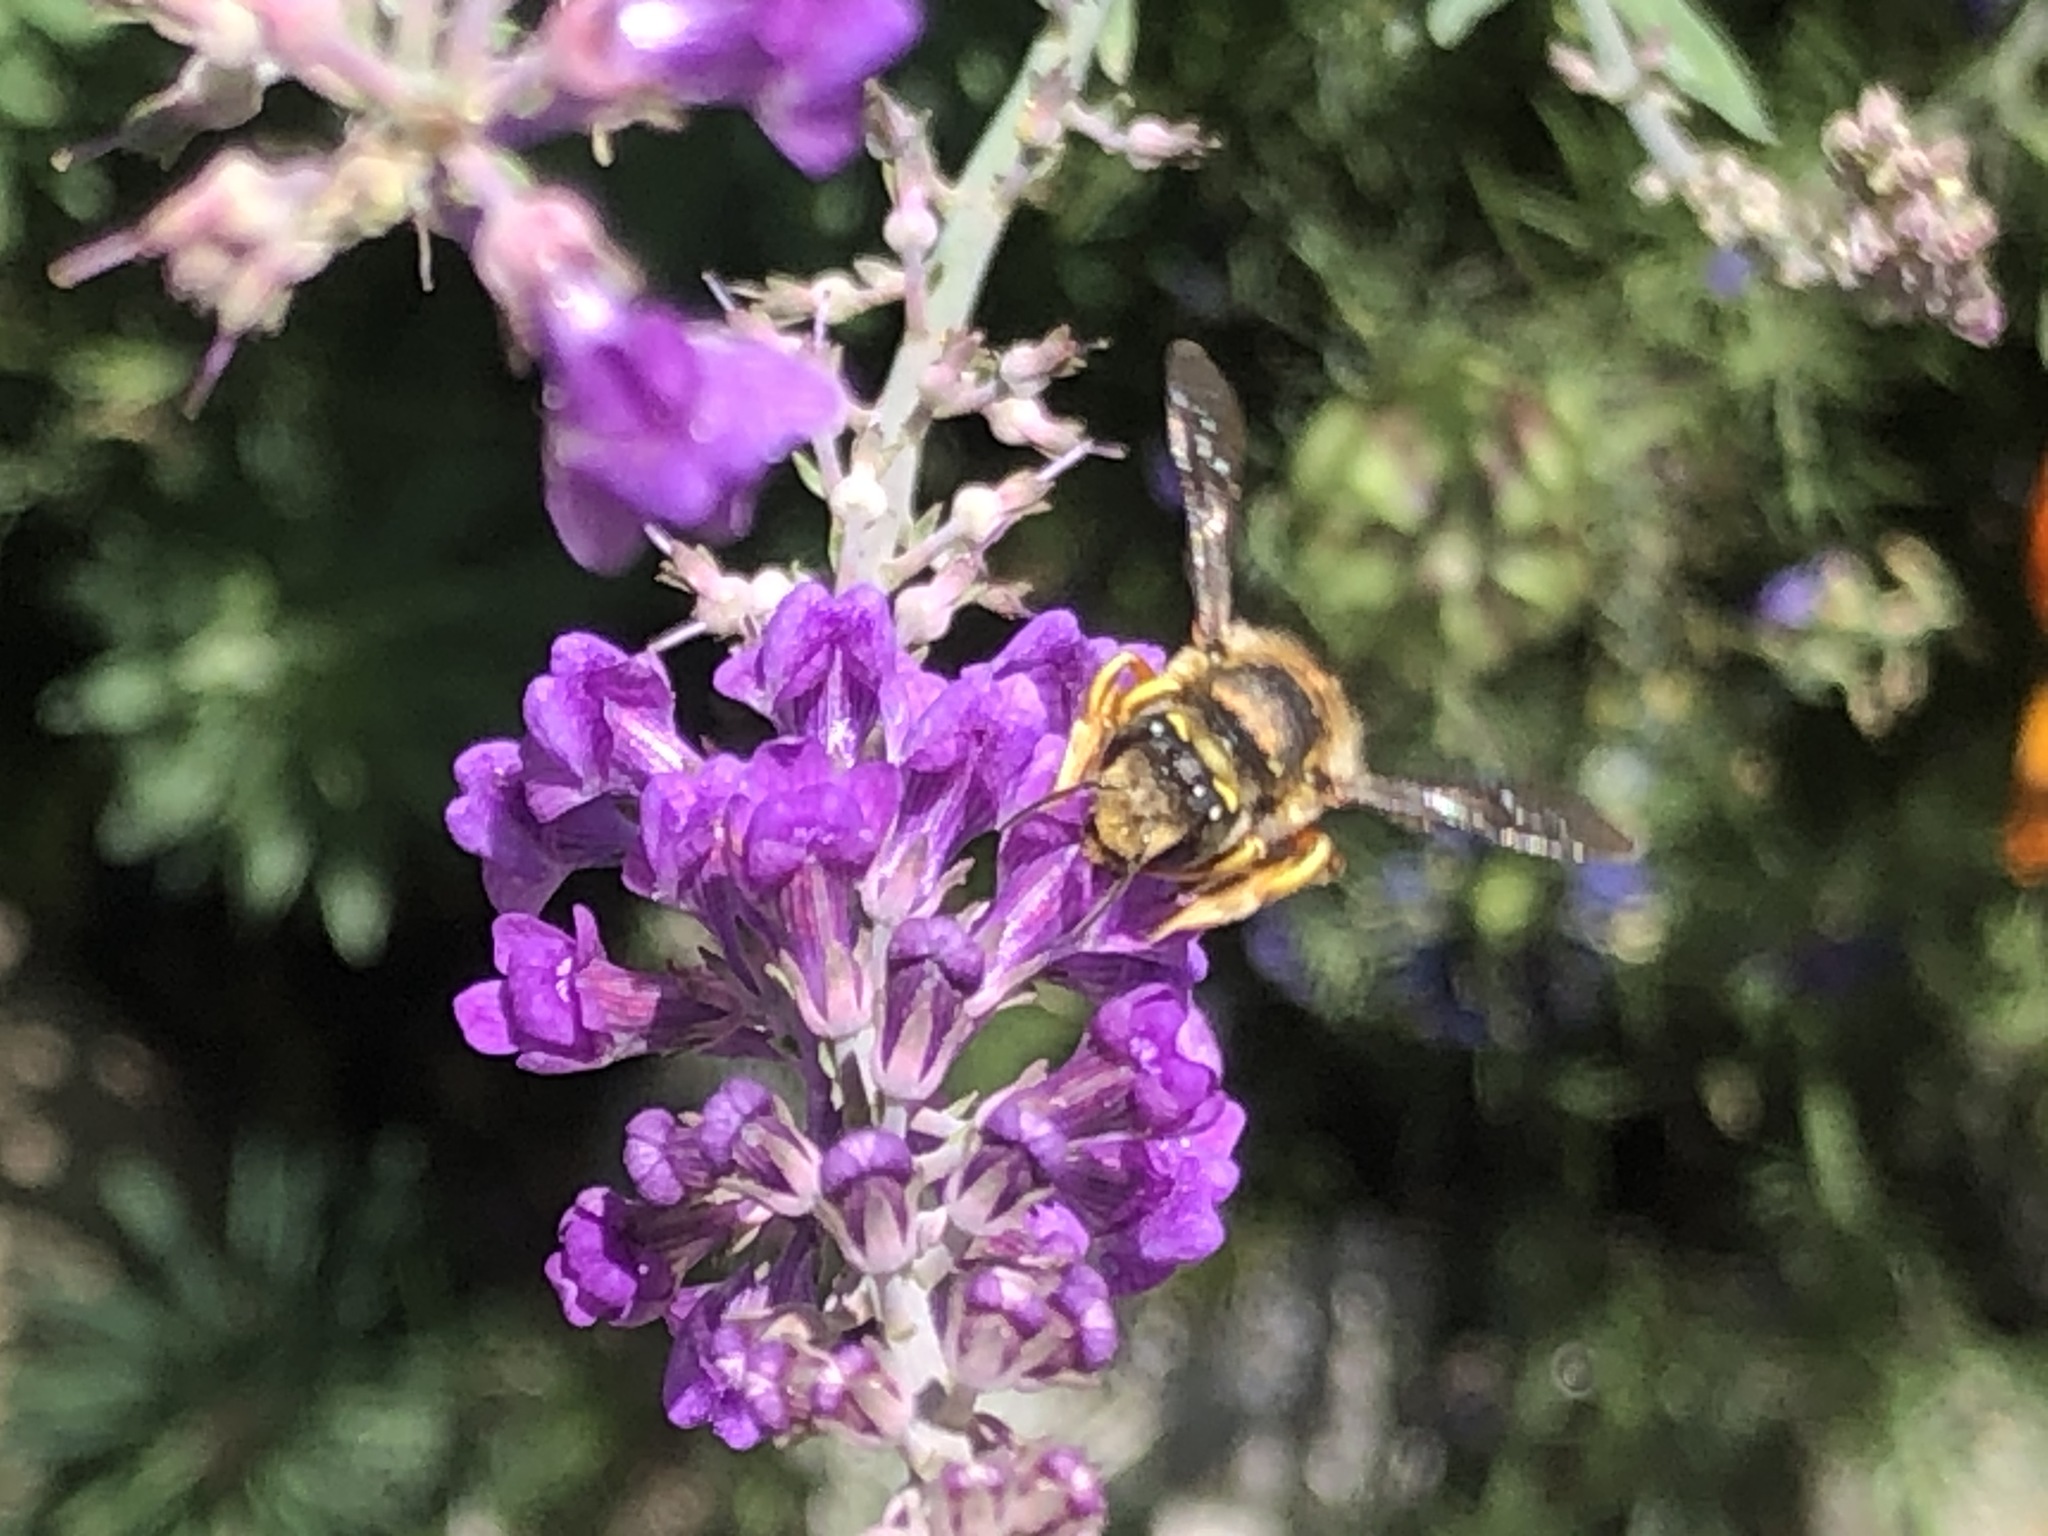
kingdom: Animalia
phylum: Arthropoda
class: Insecta
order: Hymenoptera
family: Megachilidae
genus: Anthidium
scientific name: Anthidium manicatum
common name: Wool carder bee
